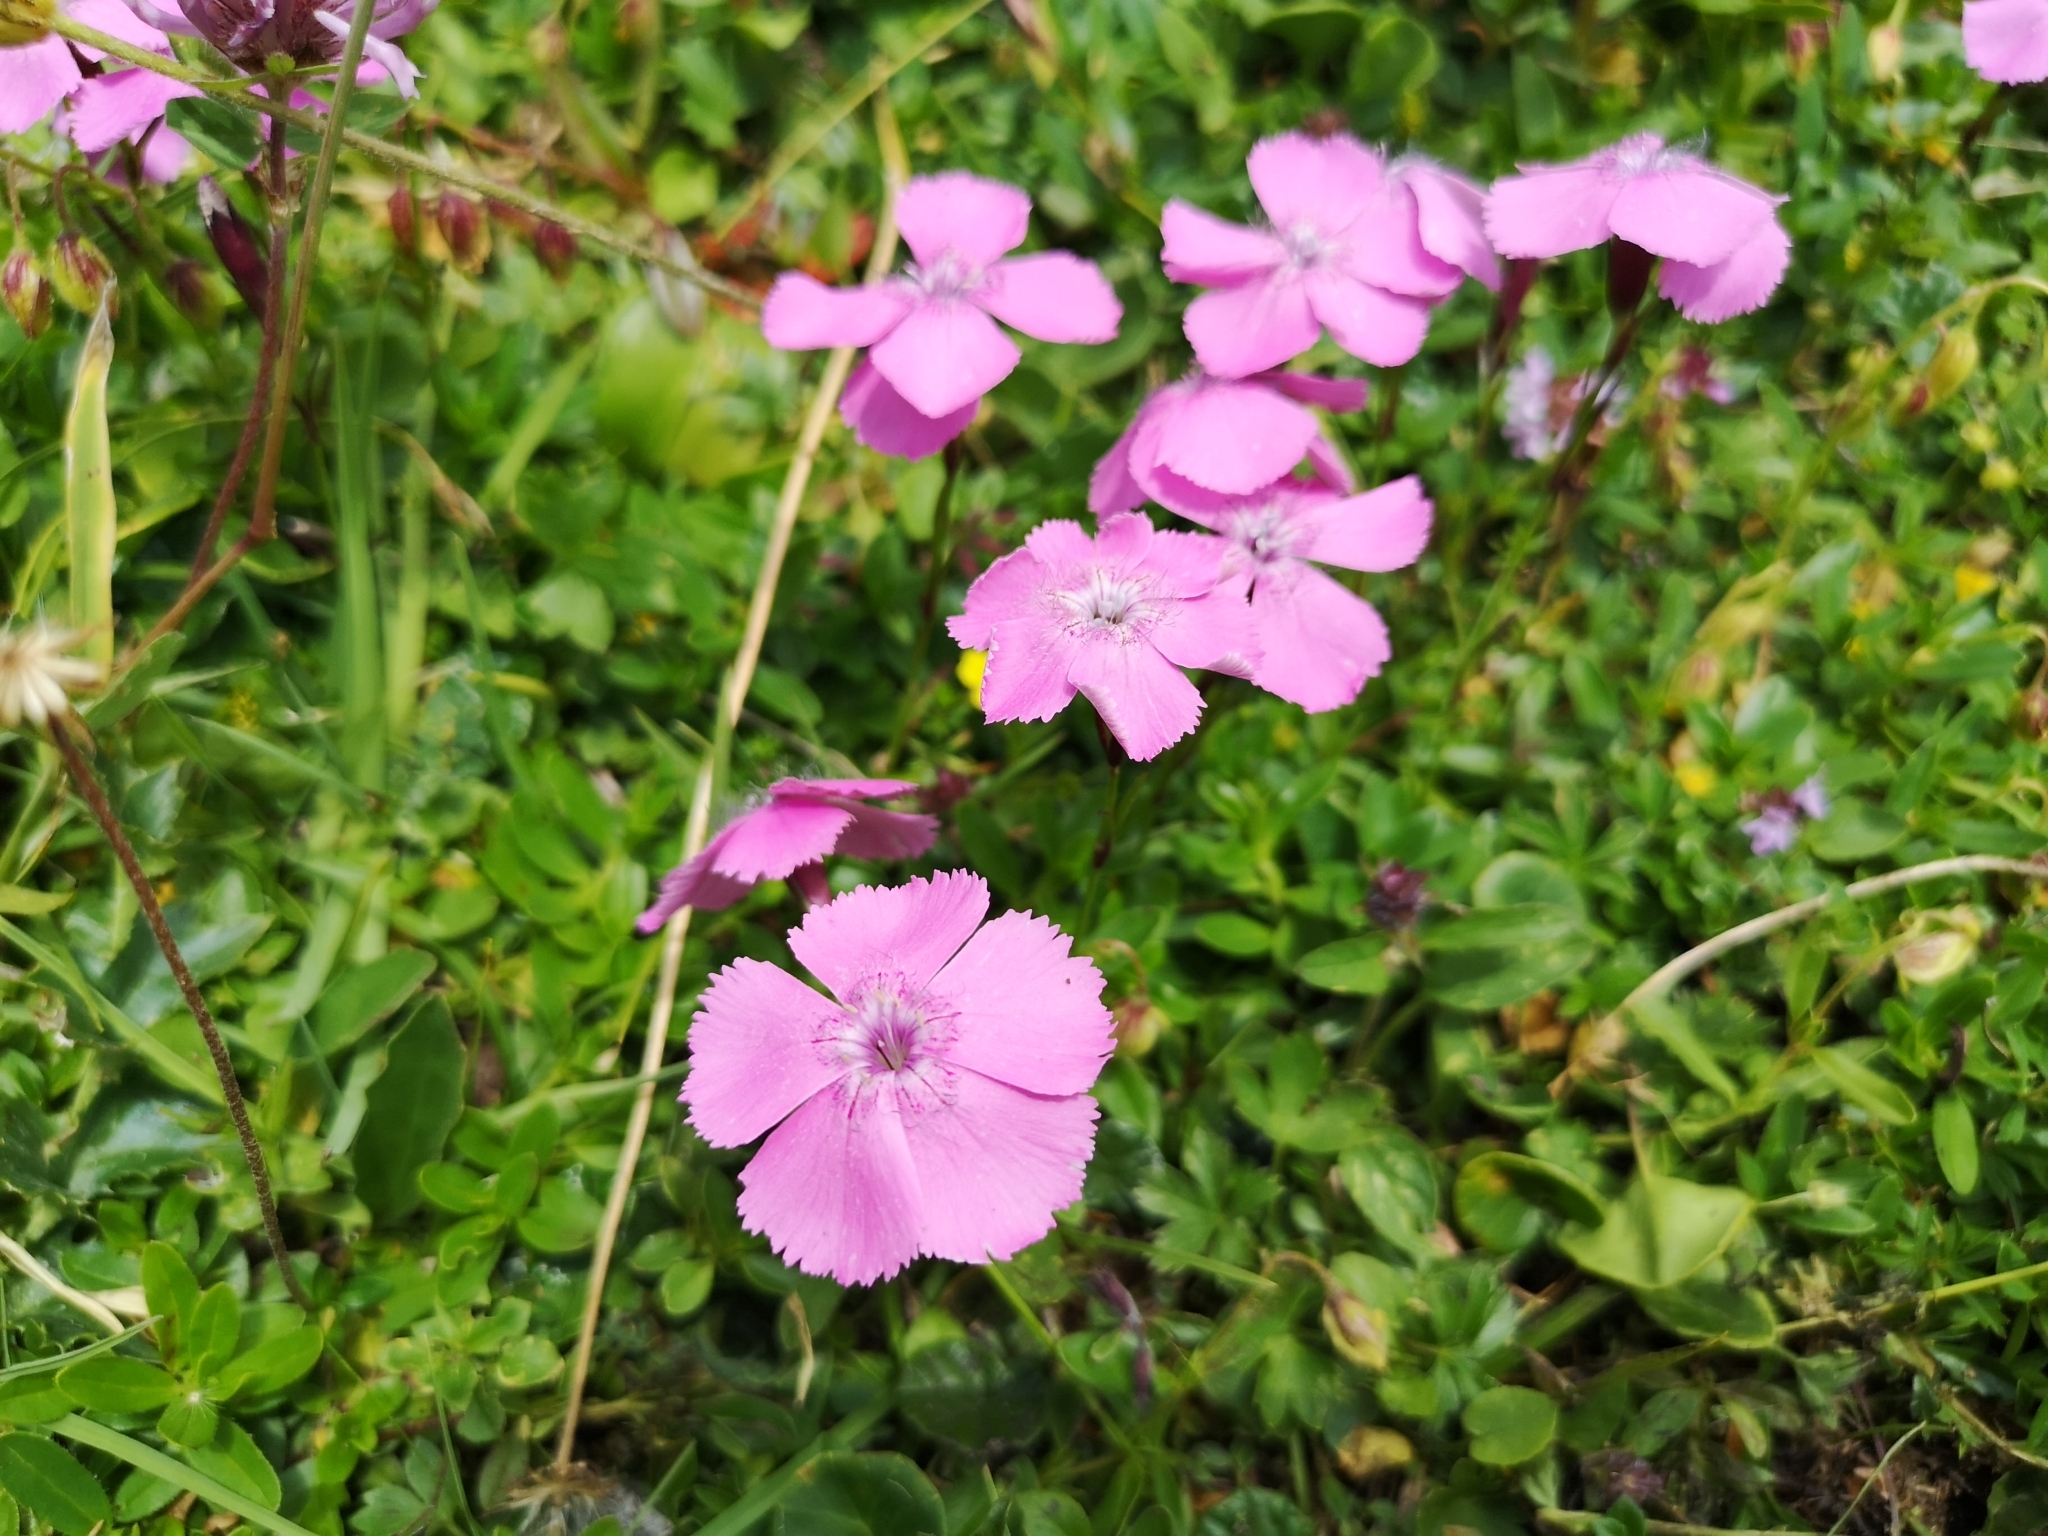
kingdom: Plantae
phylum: Tracheophyta
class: Magnoliopsida
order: Caryophyllales
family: Caryophyllaceae
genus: Dianthus
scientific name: Dianthus alpinus
